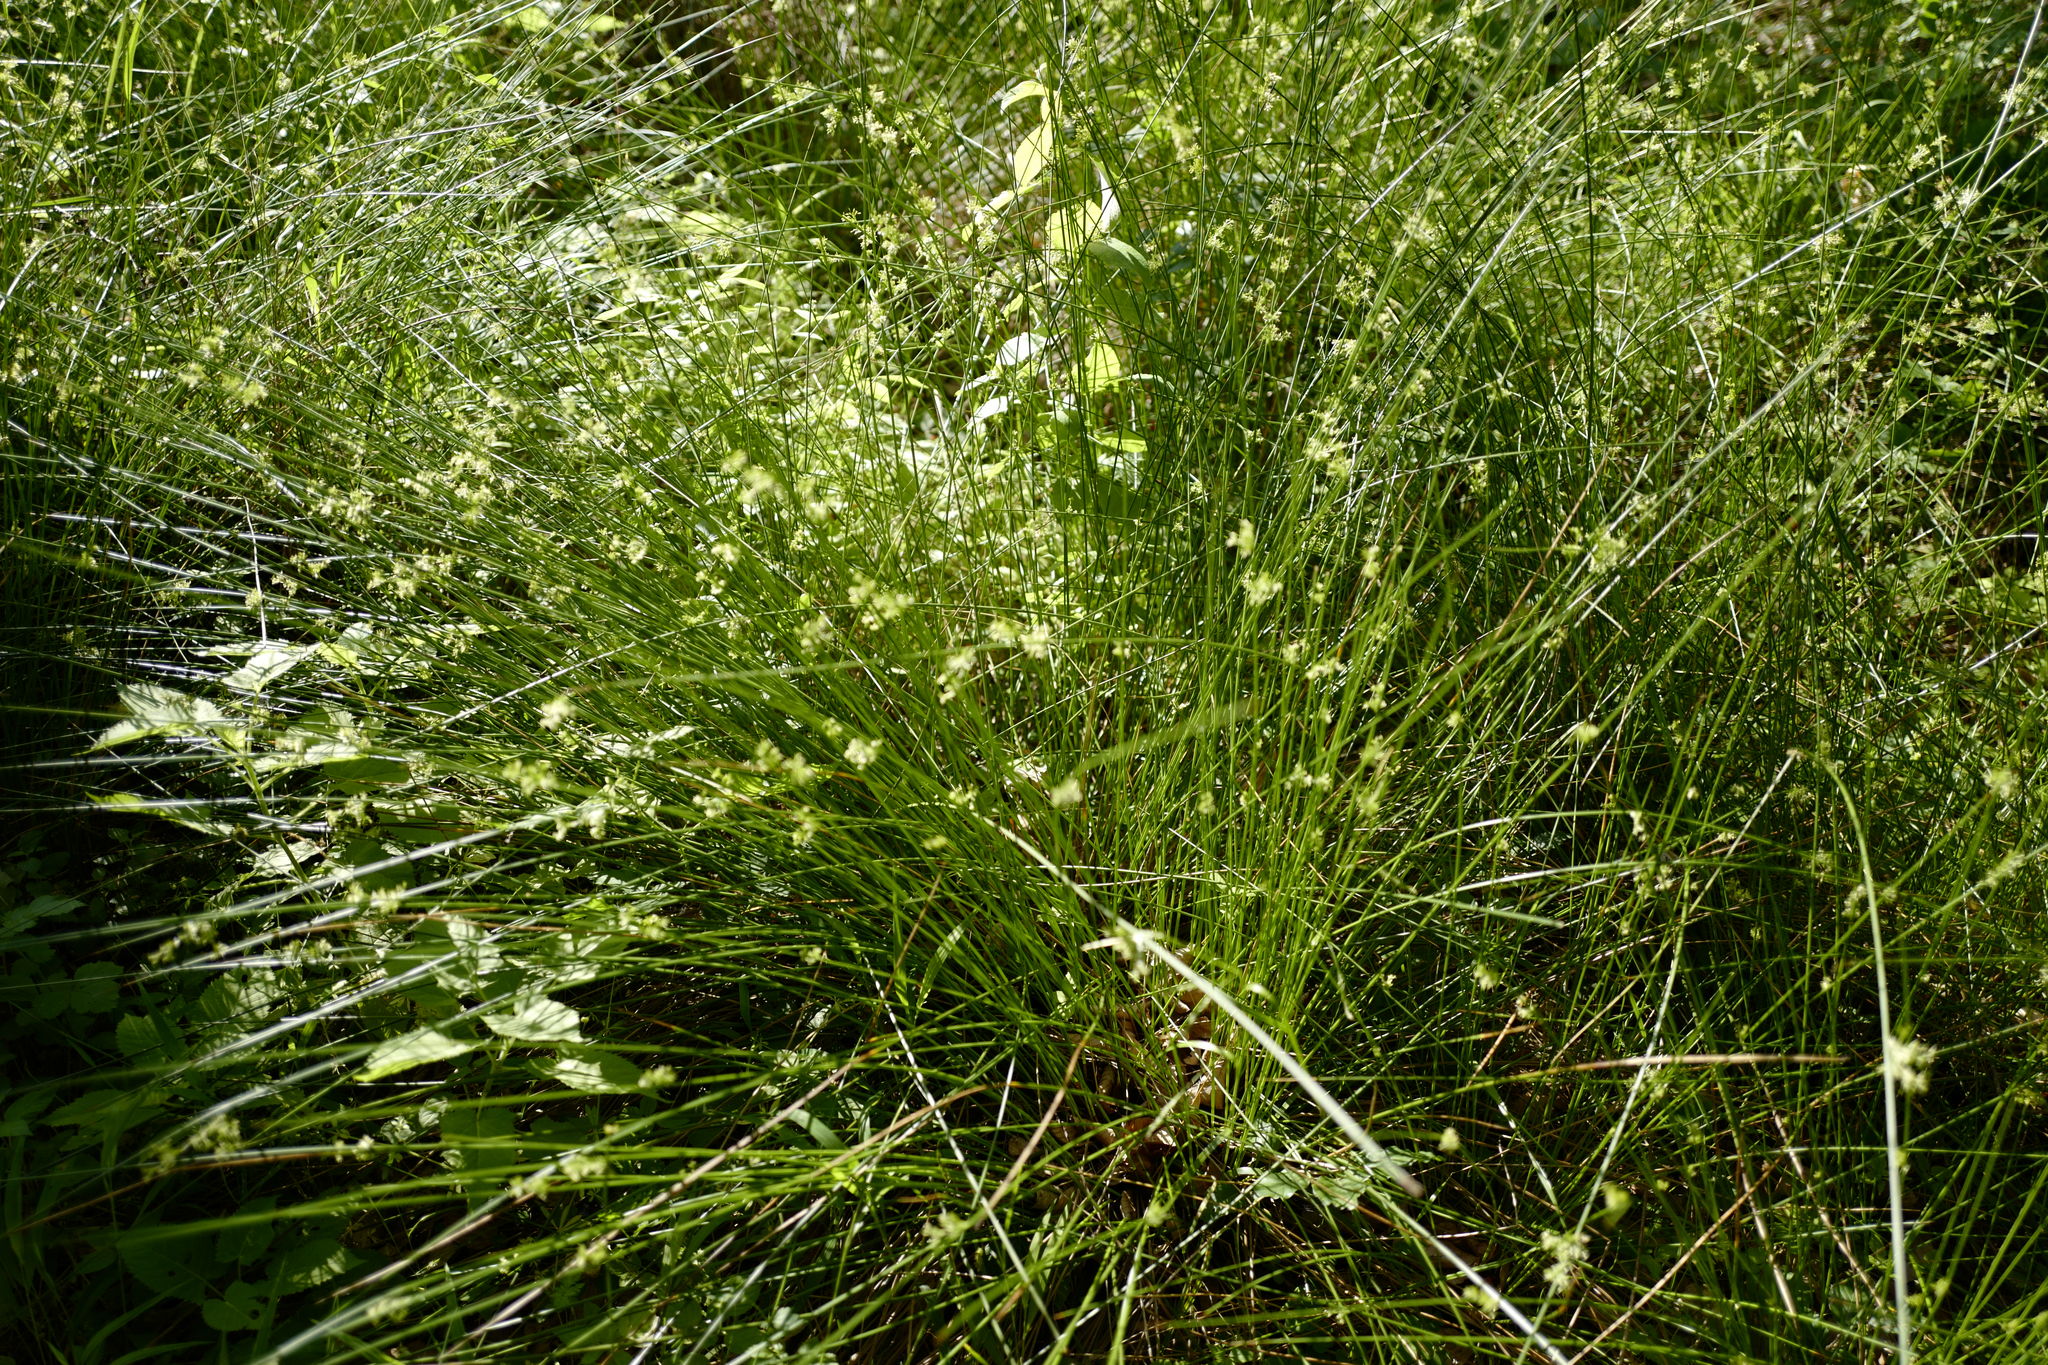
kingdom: Plantae
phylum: Tracheophyta
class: Liliopsida
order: Poales
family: Juncaceae
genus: Juncus
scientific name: Juncus effusus
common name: Soft rush
